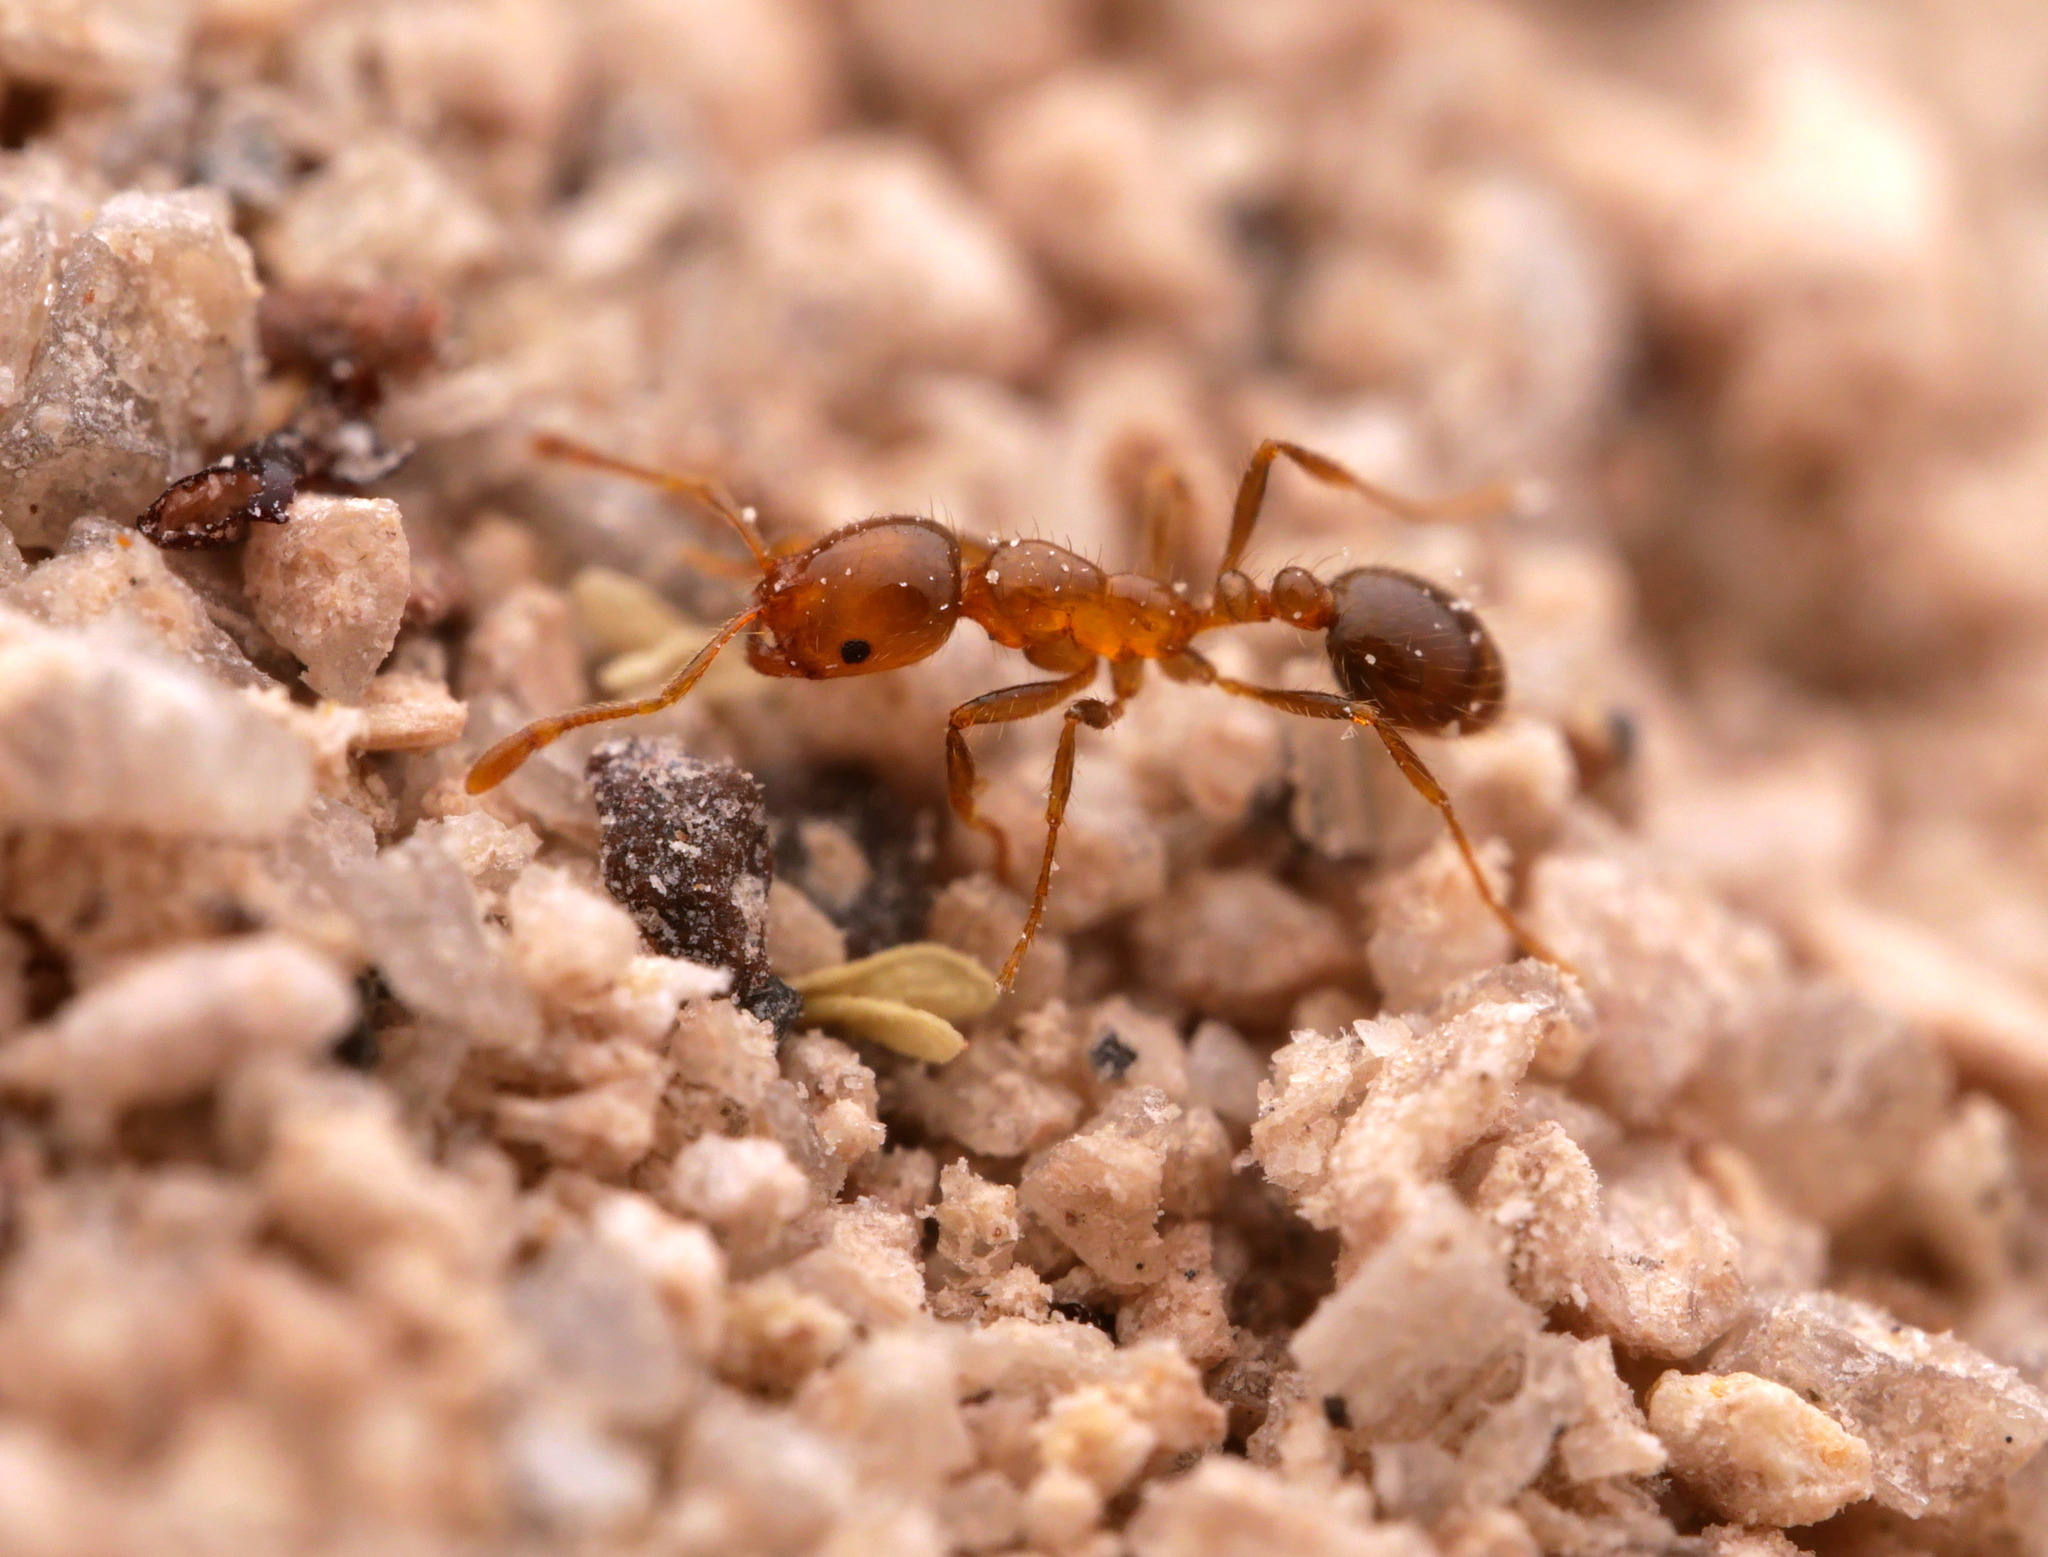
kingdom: Animalia
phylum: Arthropoda
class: Insecta
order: Hymenoptera
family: Formicidae
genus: Solenopsis
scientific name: Solenopsis xyloni
